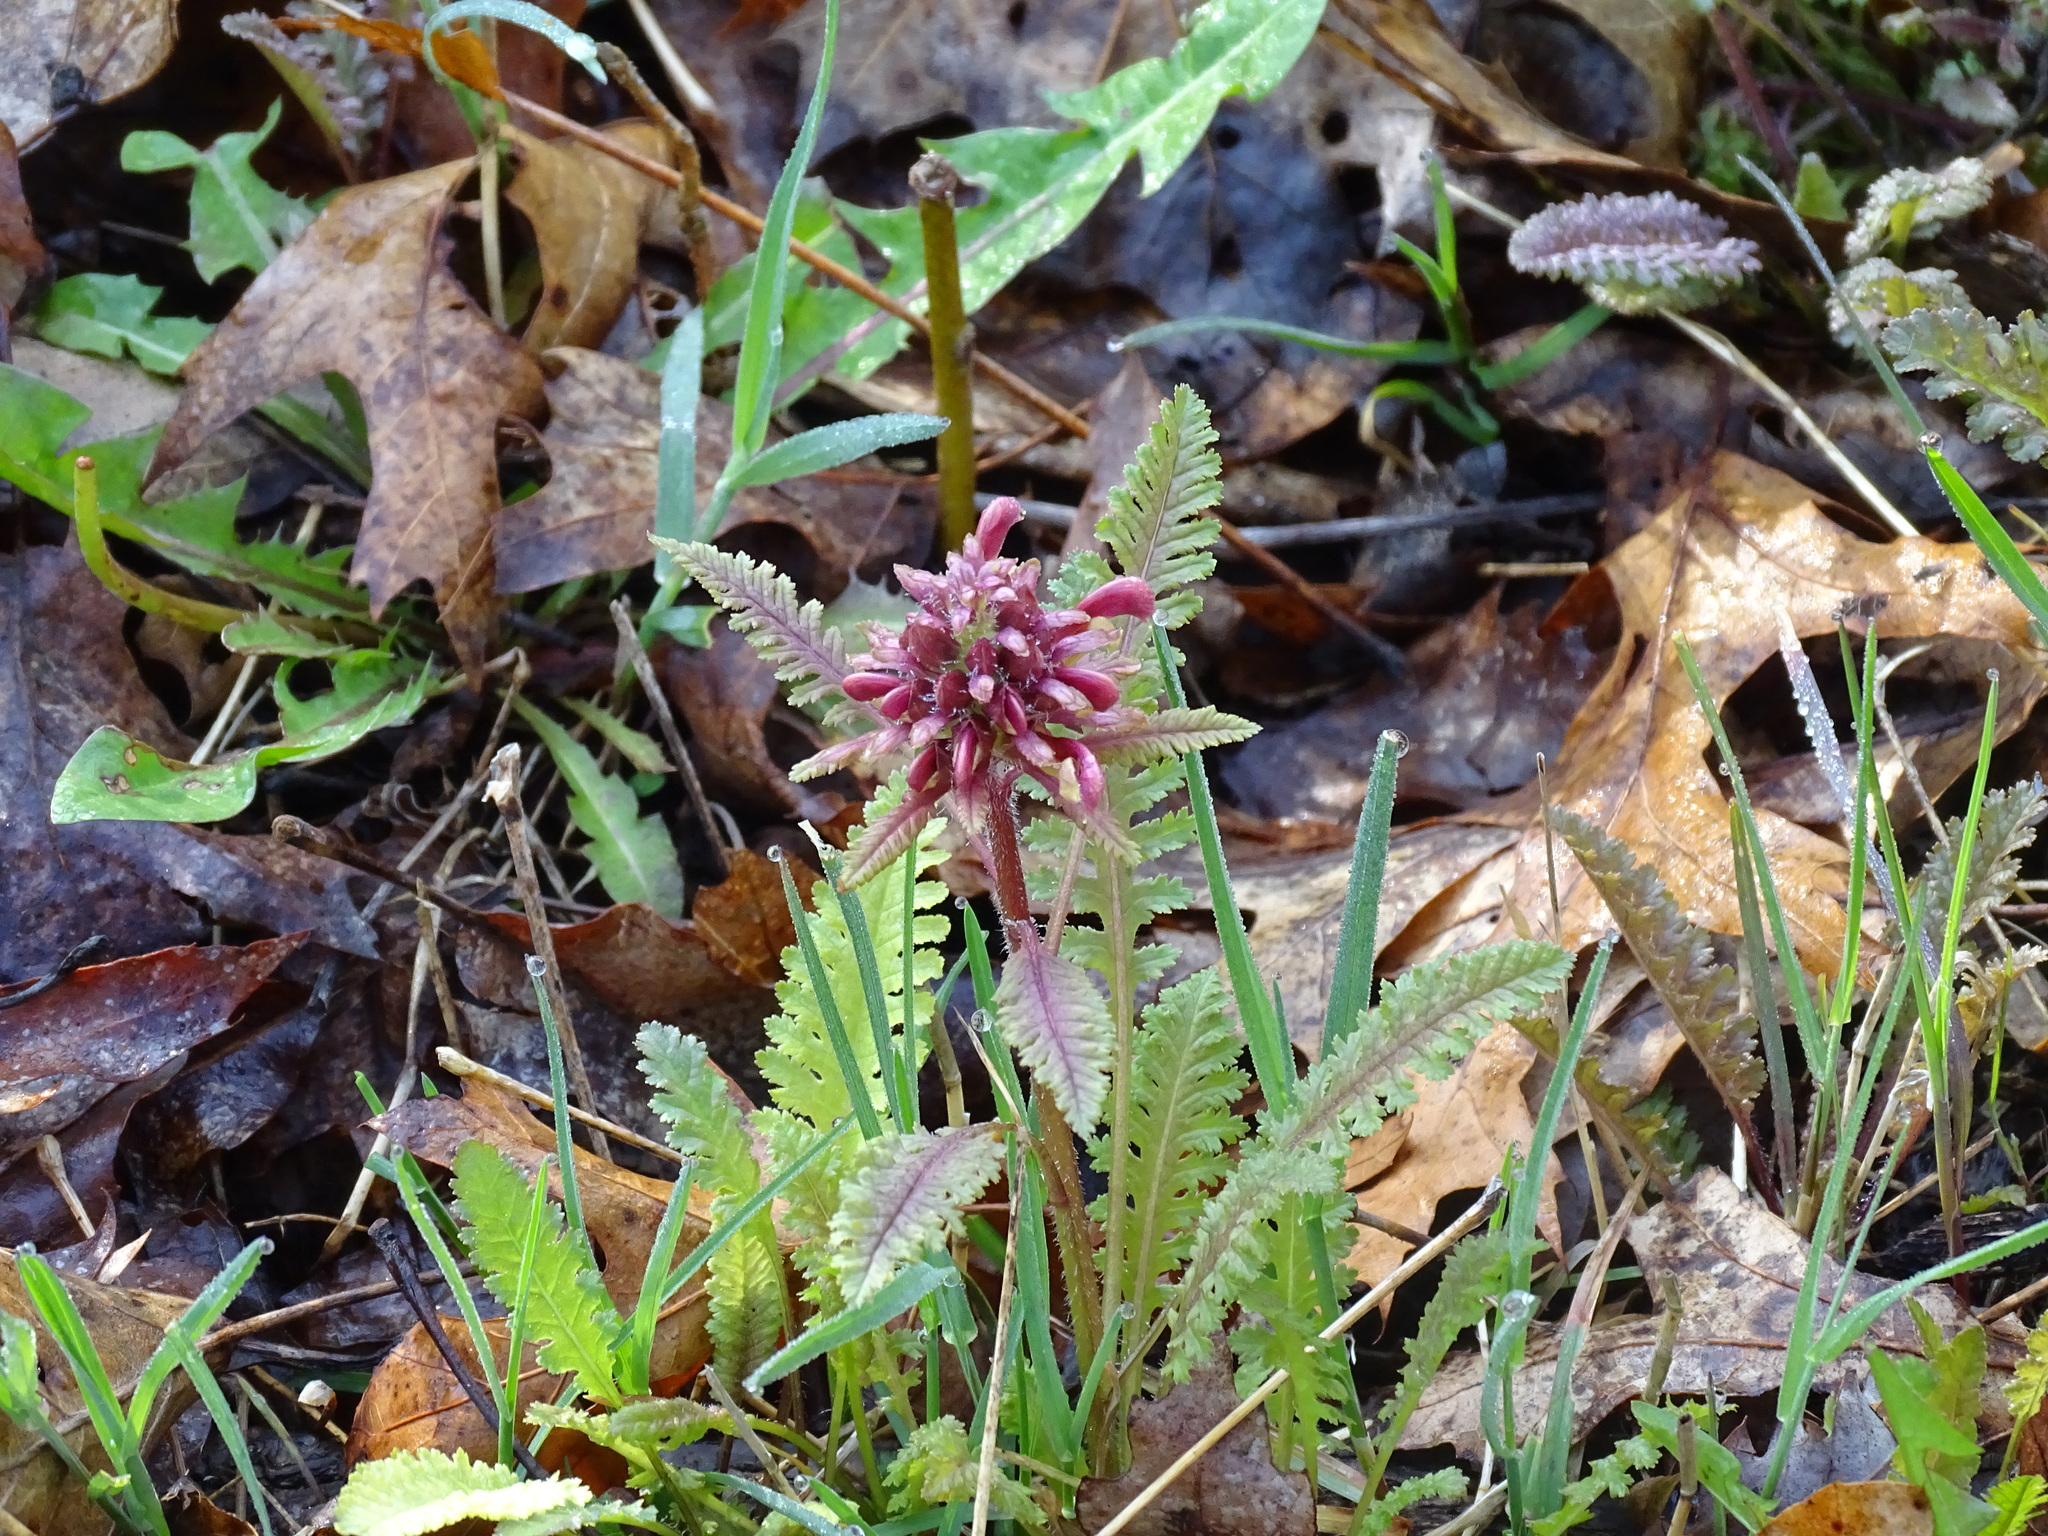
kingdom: Plantae
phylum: Tracheophyta
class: Magnoliopsida
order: Lamiales
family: Orobanchaceae
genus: Pedicularis
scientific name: Pedicularis canadensis
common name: Early lousewort
